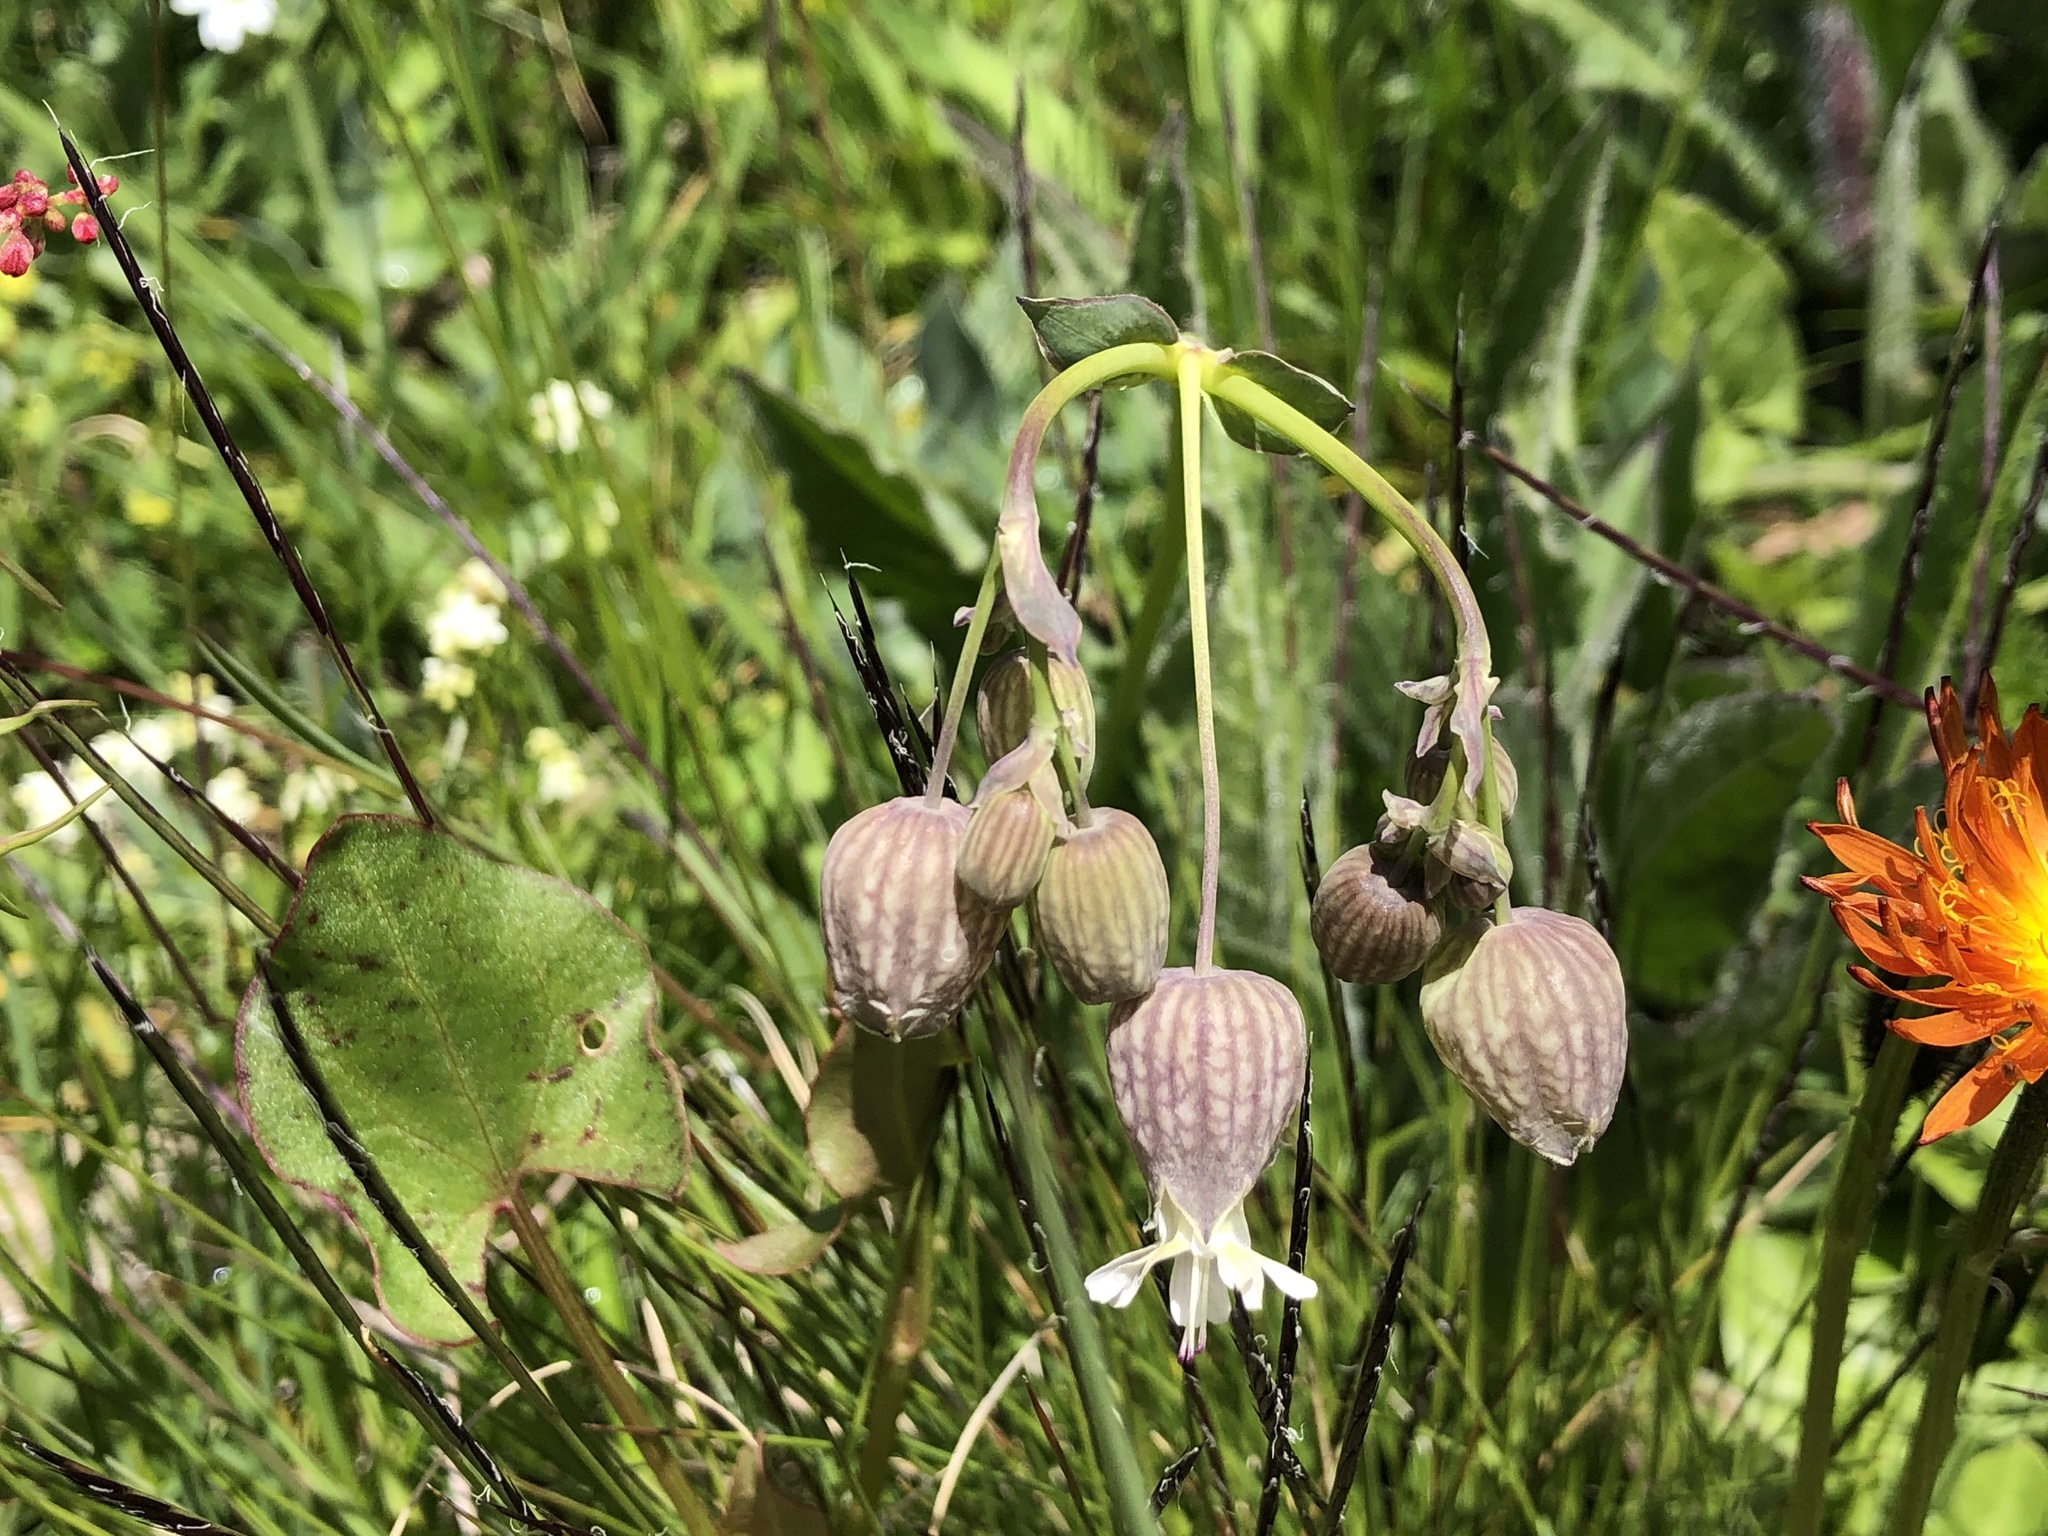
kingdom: Plantae
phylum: Tracheophyta
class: Magnoliopsida
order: Caryophyllales
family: Caryophyllaceae
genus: Silene
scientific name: Silene vulgaris
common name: Bladder campion
